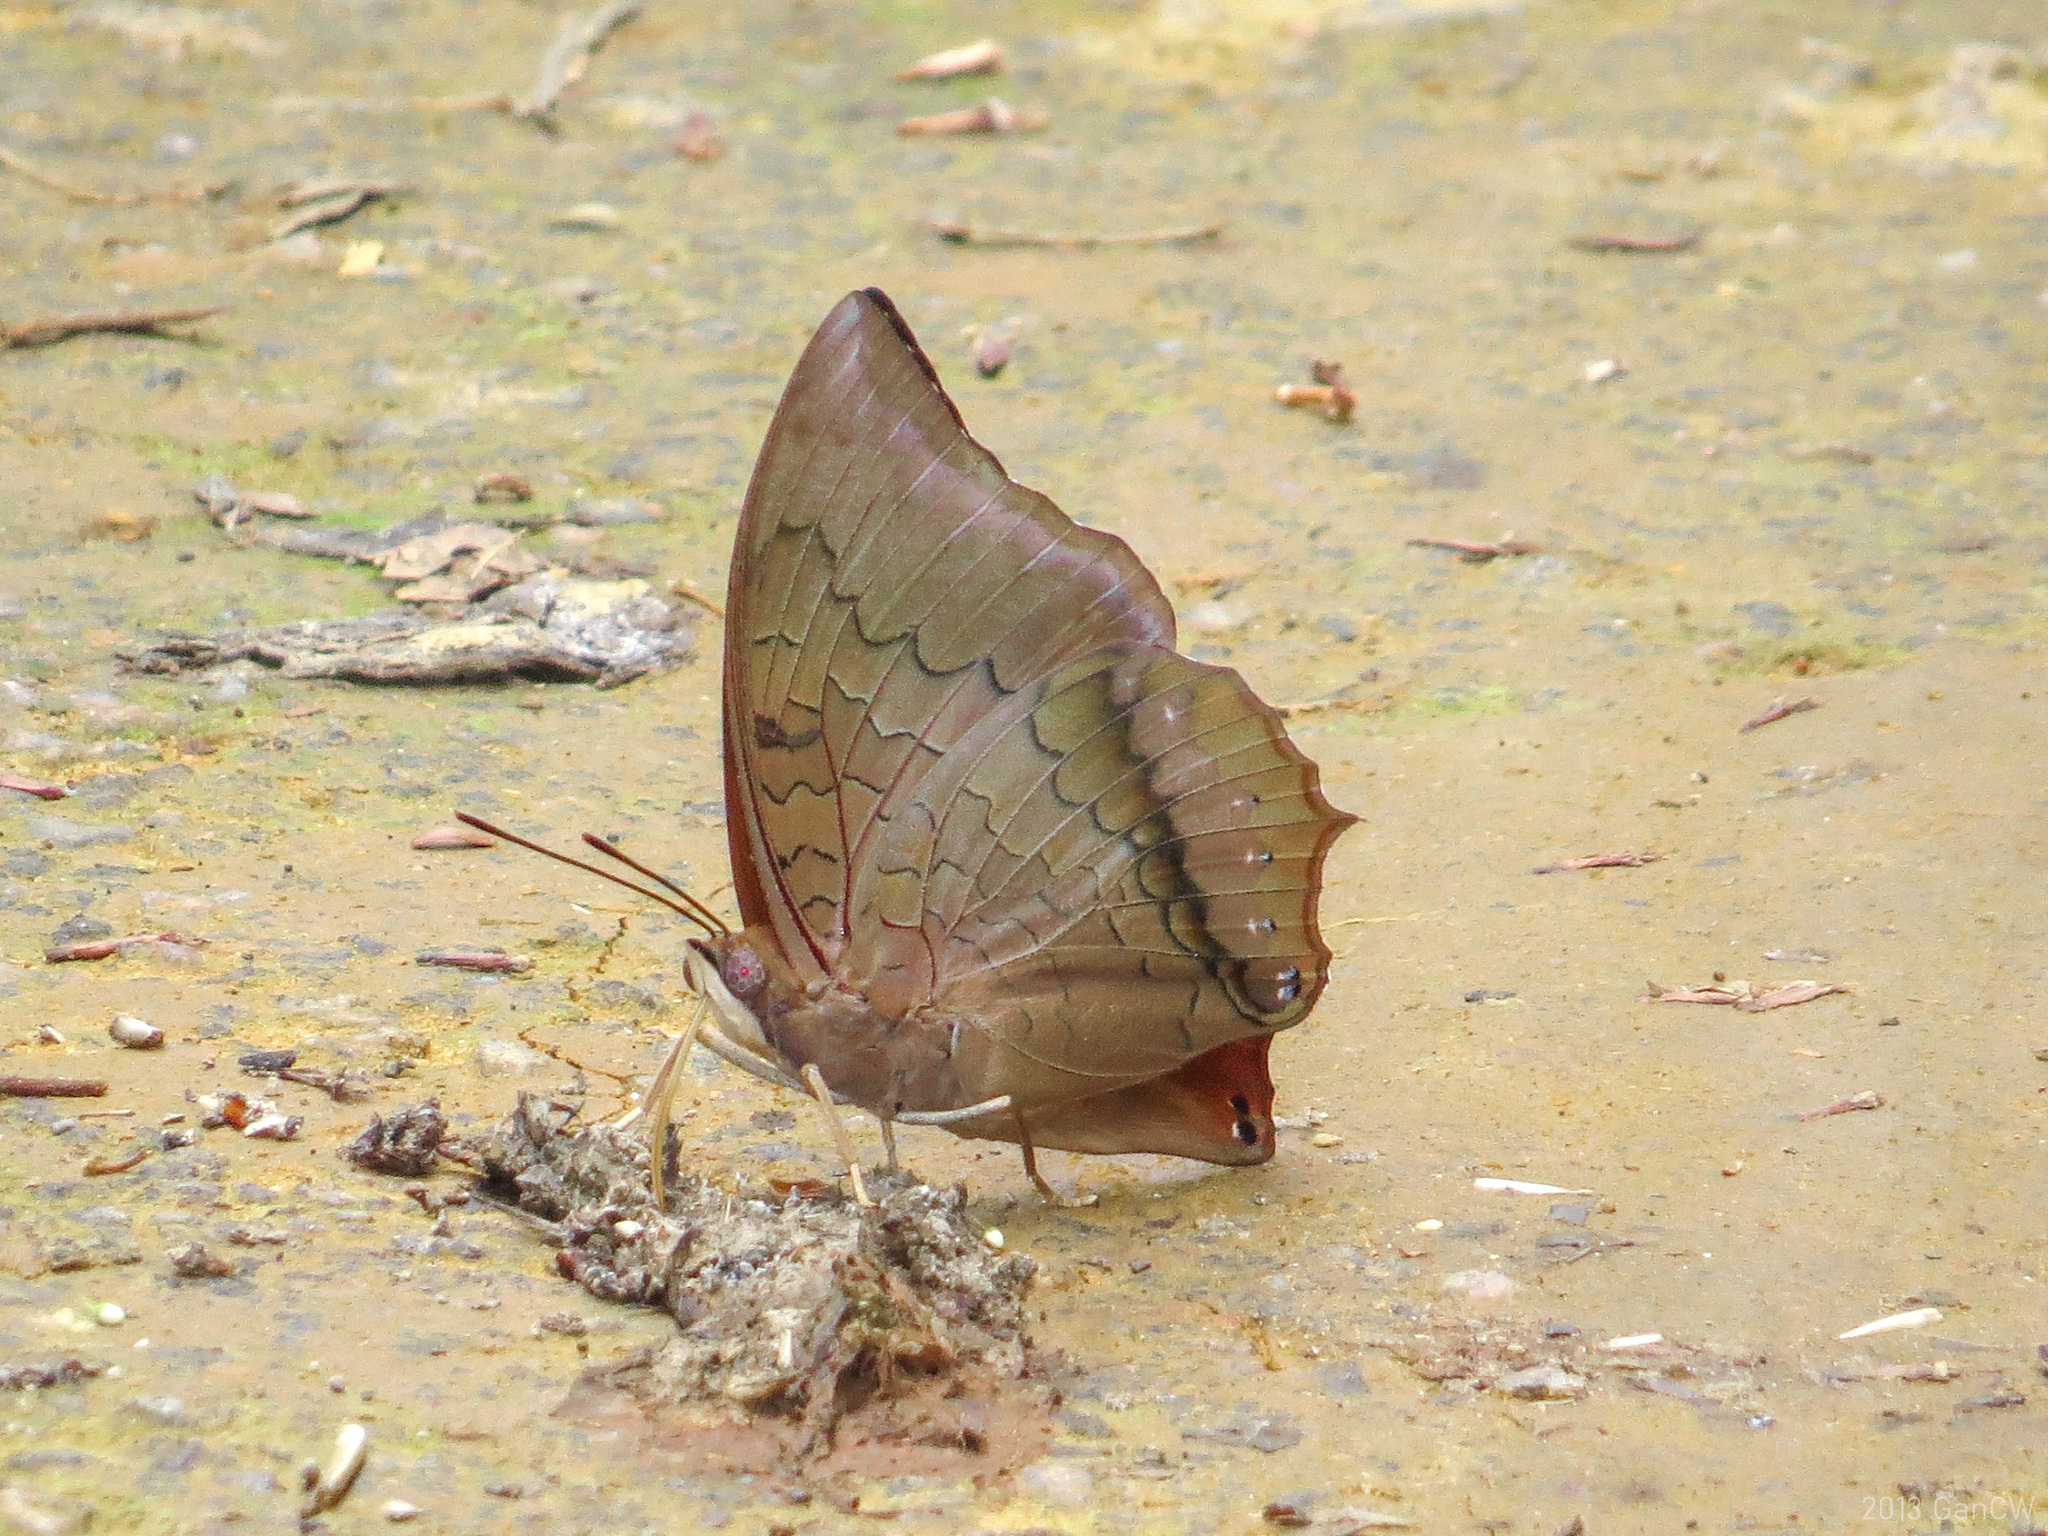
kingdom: Animalia
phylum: Arthropoda
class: Insecta
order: Lepidoptera
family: Nymphalidae
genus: Charaxes
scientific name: Charaxes bernardus
